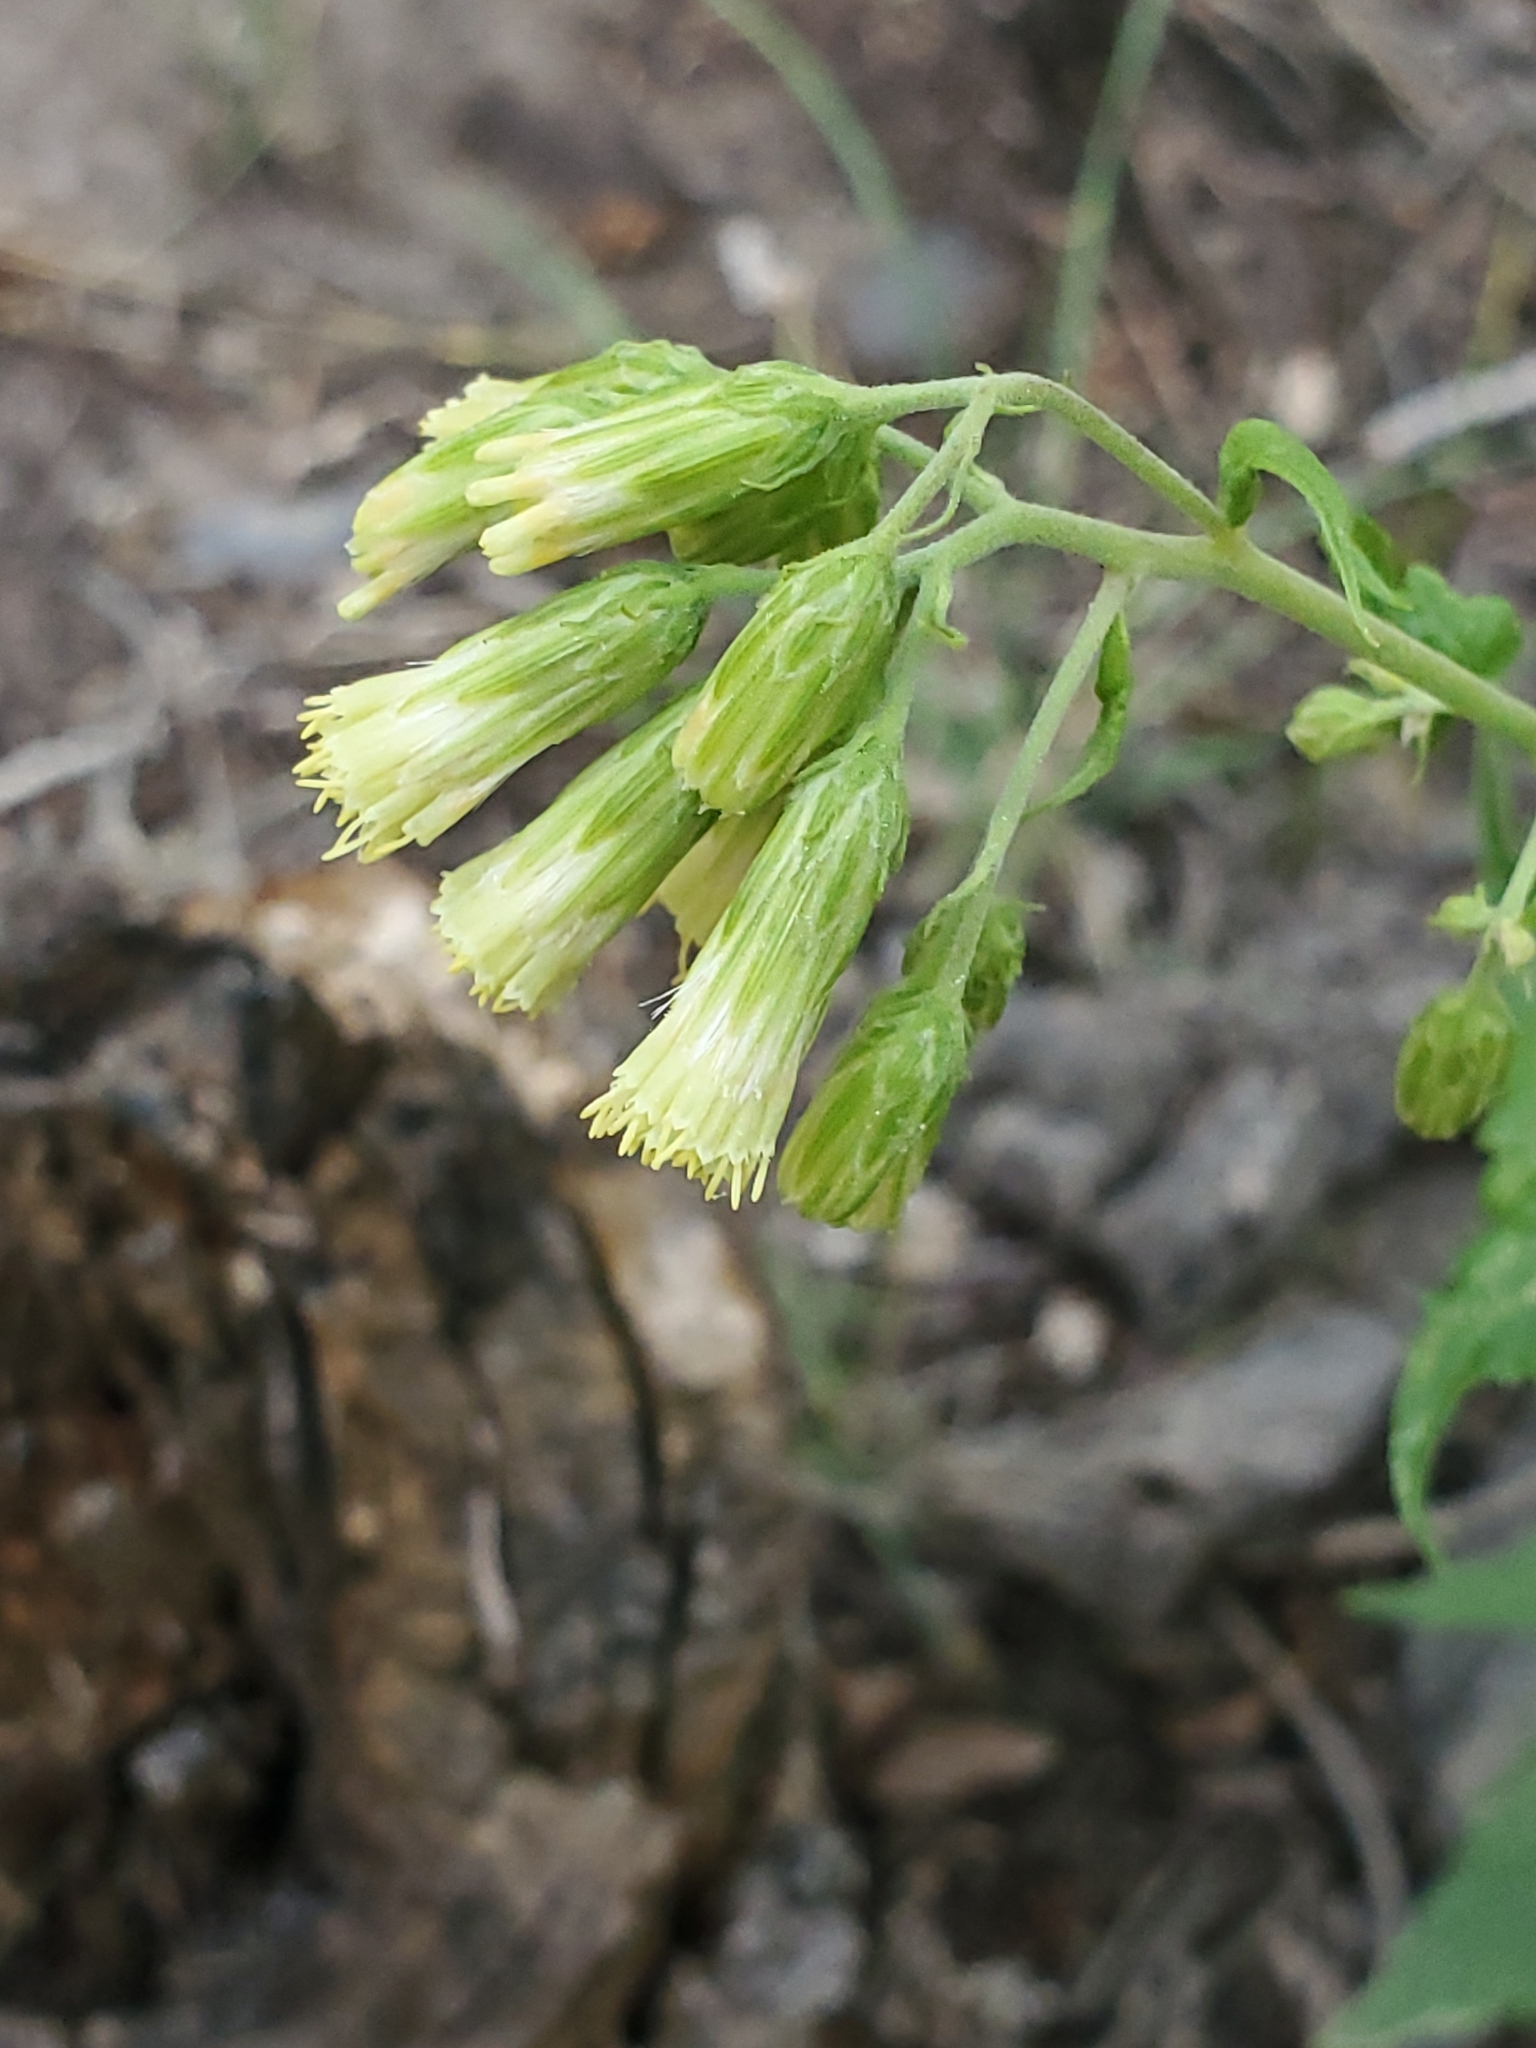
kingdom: Plantae
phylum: Tracheophyta
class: Magnoliopsida
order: Asterales
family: Asteraceae
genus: Brickellia
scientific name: Brickellia grandiflora
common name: Large-flowered brickellia
